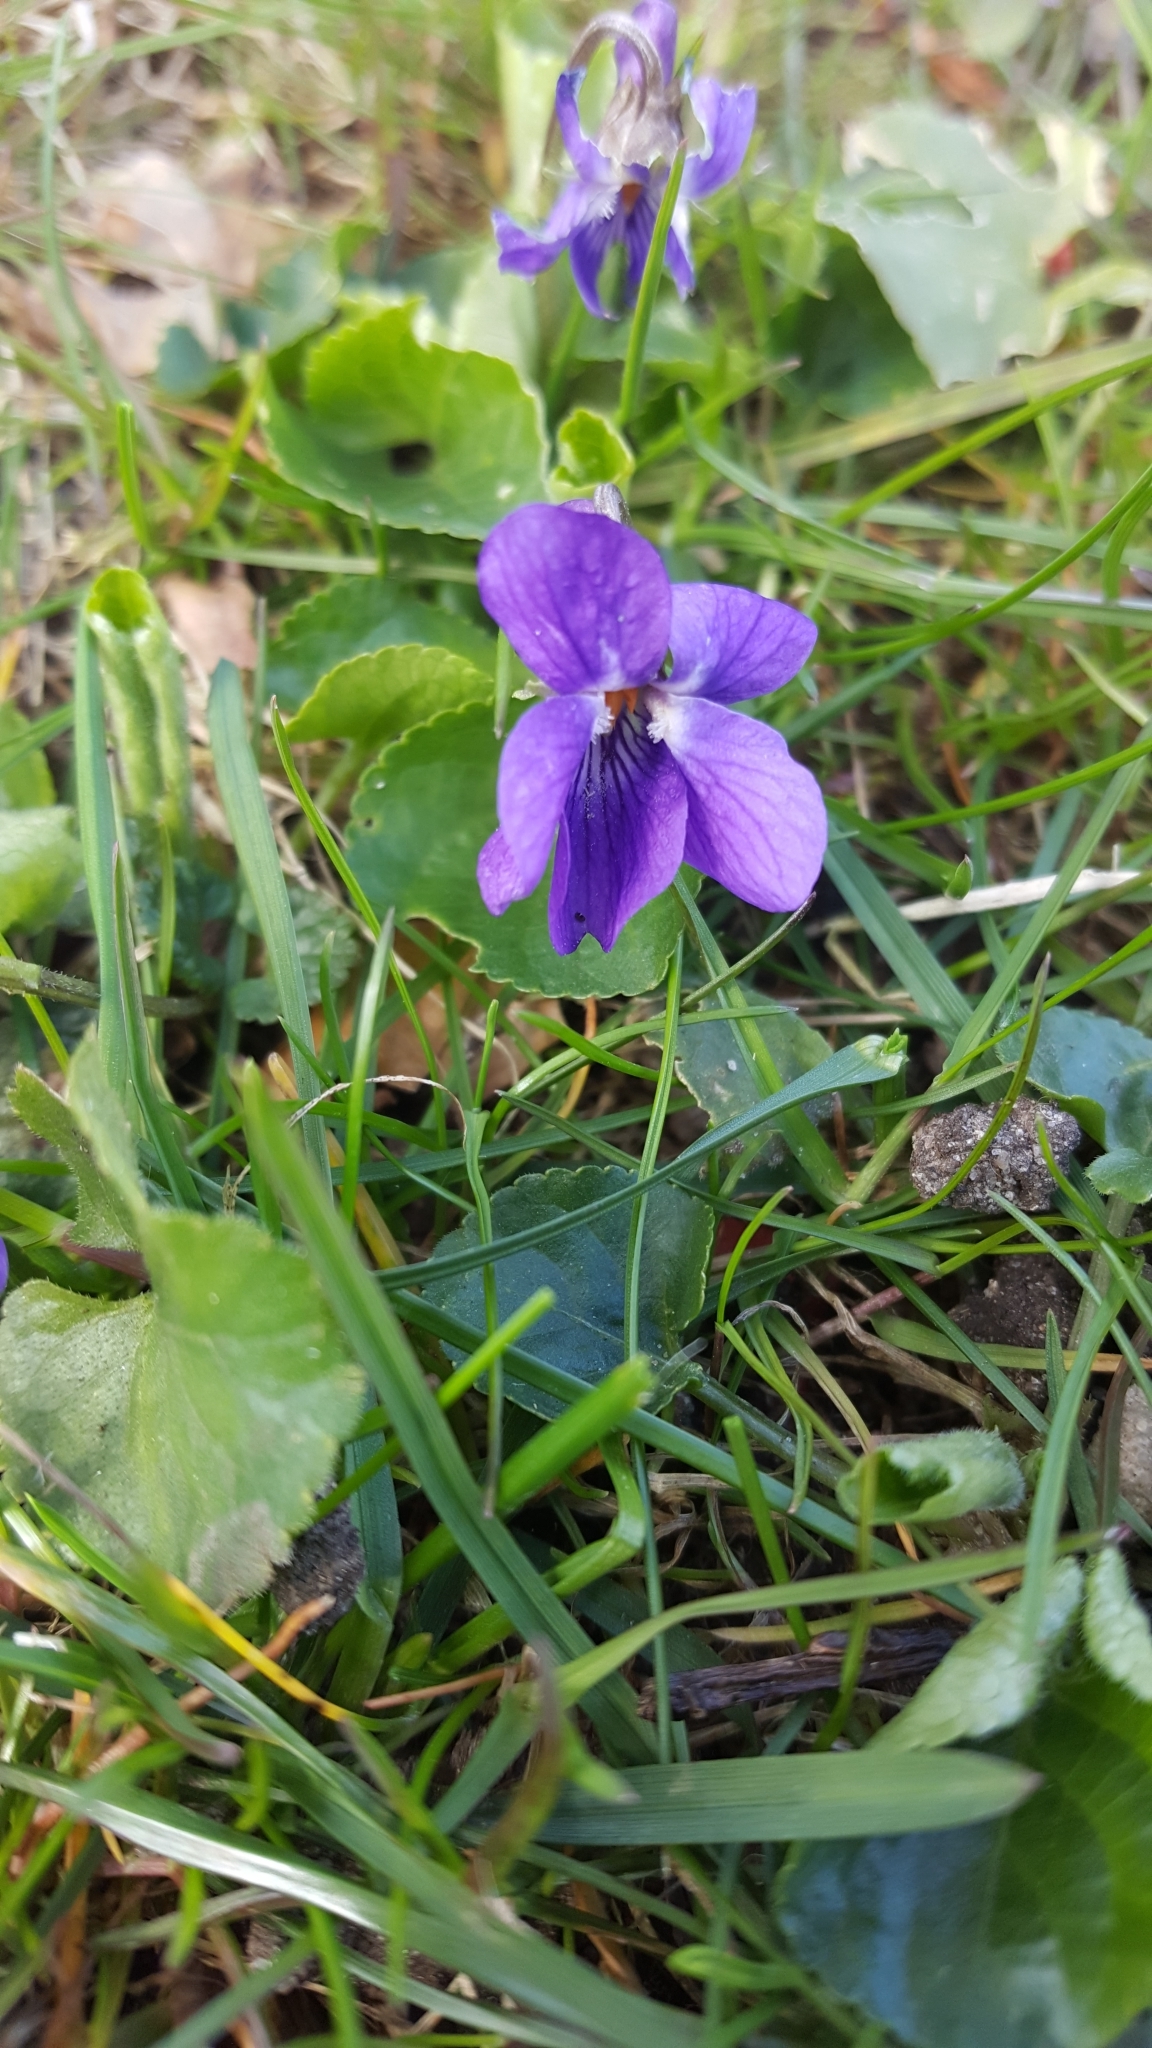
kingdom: Plantae
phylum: Tracheophyta
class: Magnoliopsida
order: Malpighiales
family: Violaceae
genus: Viola
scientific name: Viola odorata
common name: Sweet violet
